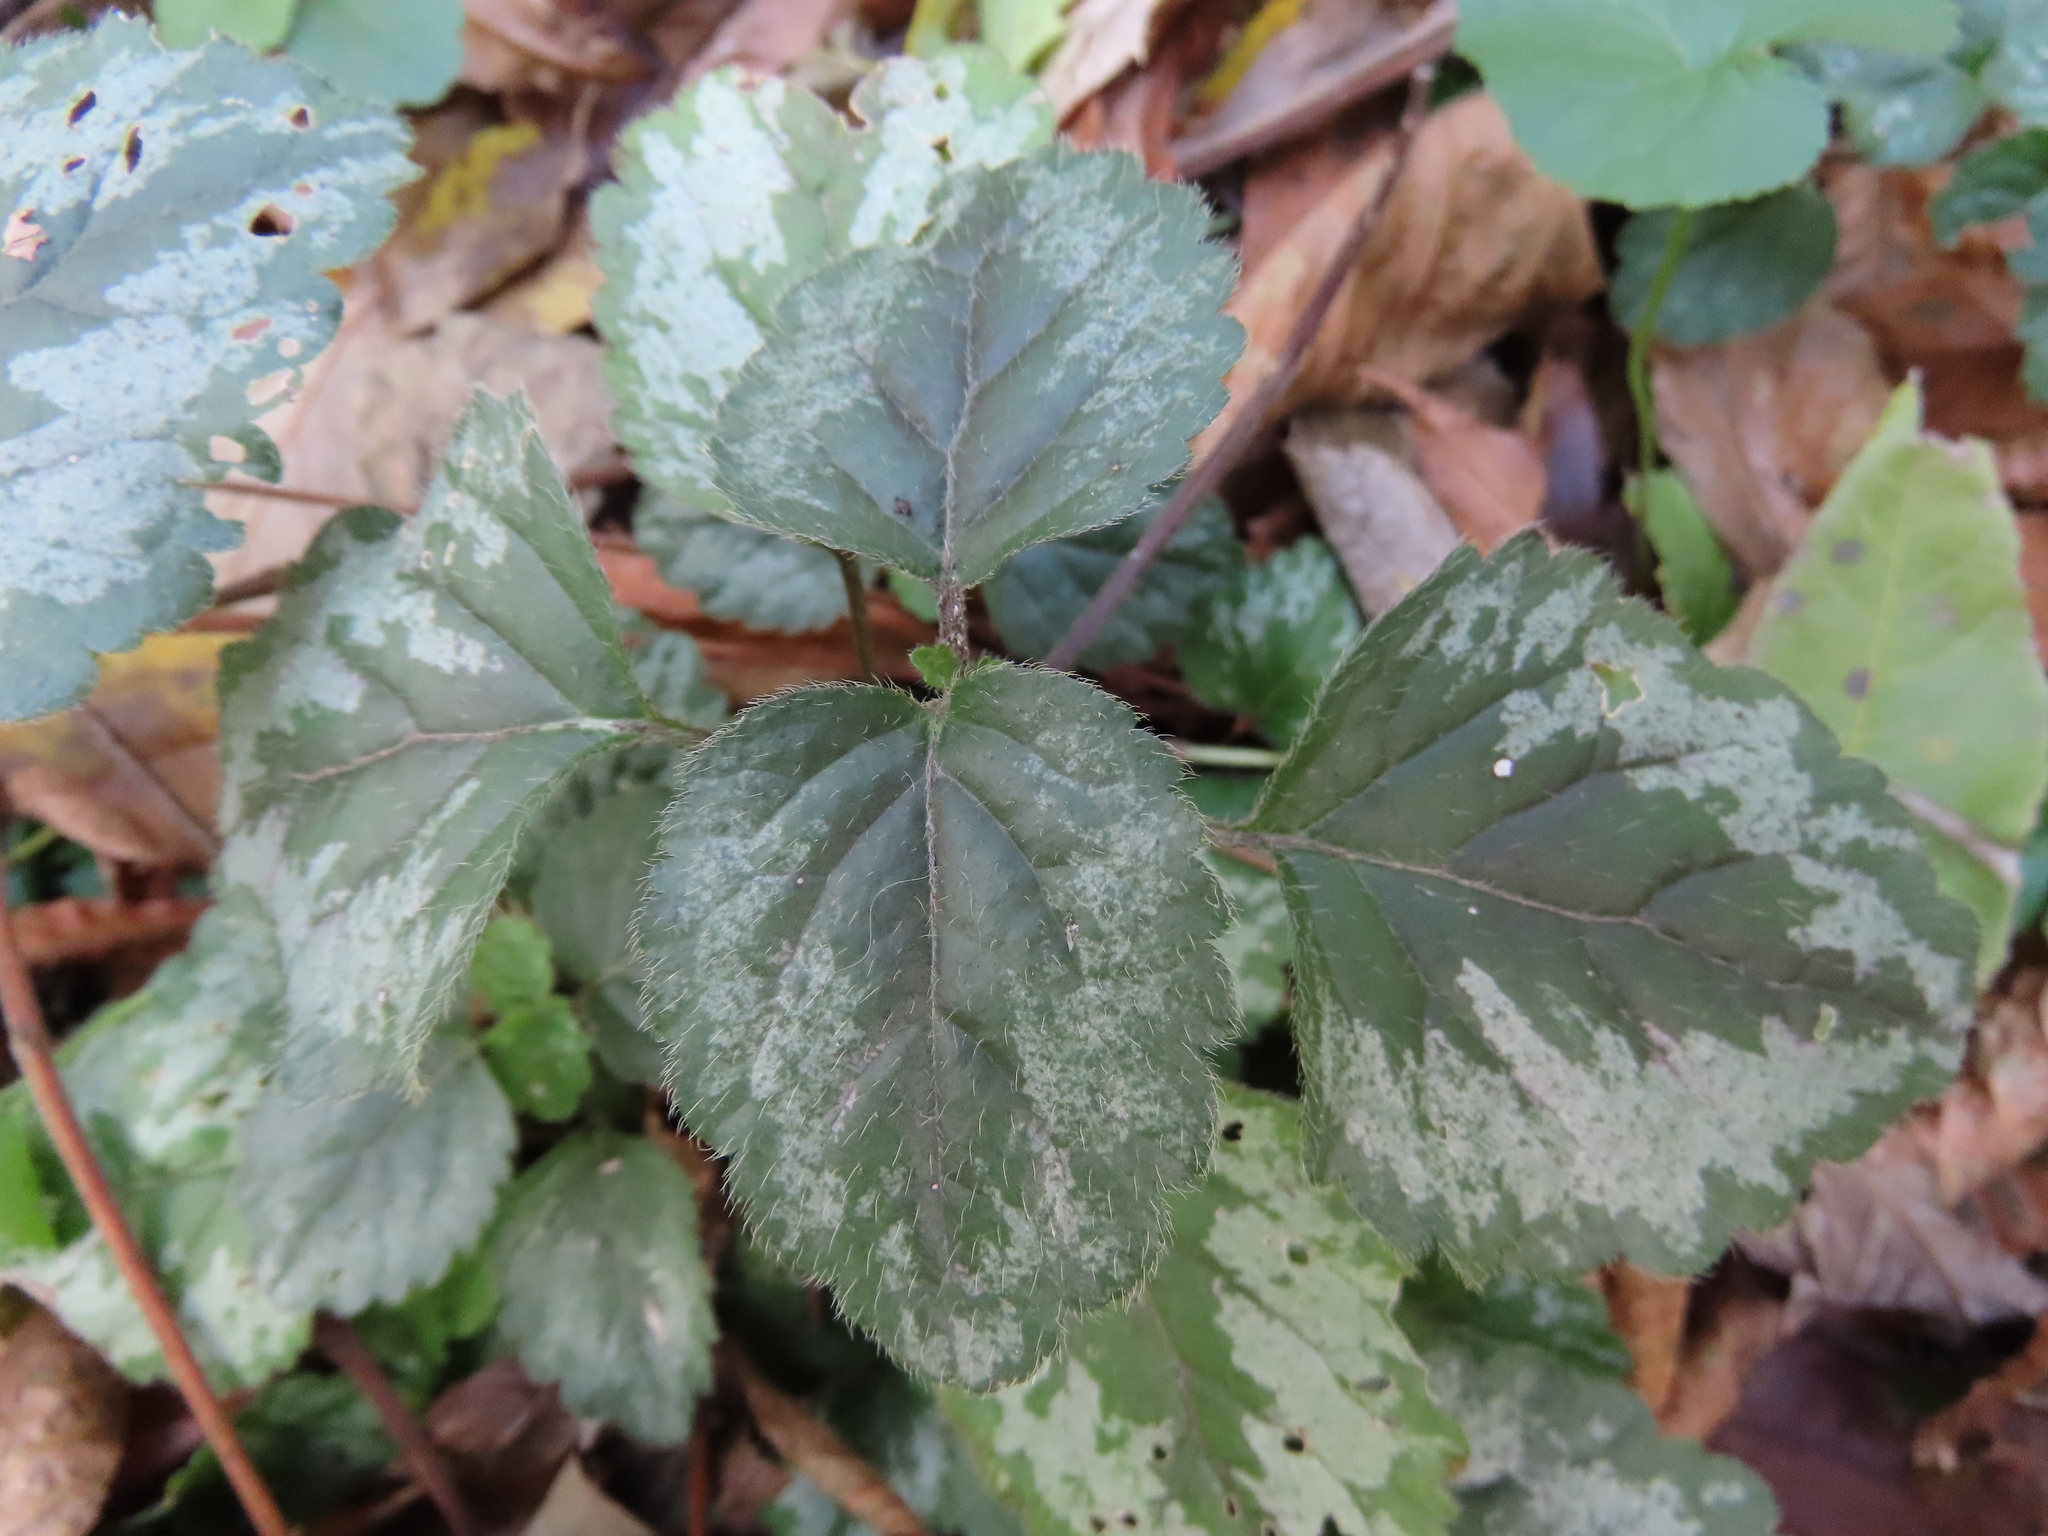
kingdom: Plantae
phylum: Tracheophyta
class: Magnoliopsida
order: Lamiales
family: Lamiaceae
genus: Lamium
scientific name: Lamium galeobdolon
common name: Yellow archangel
